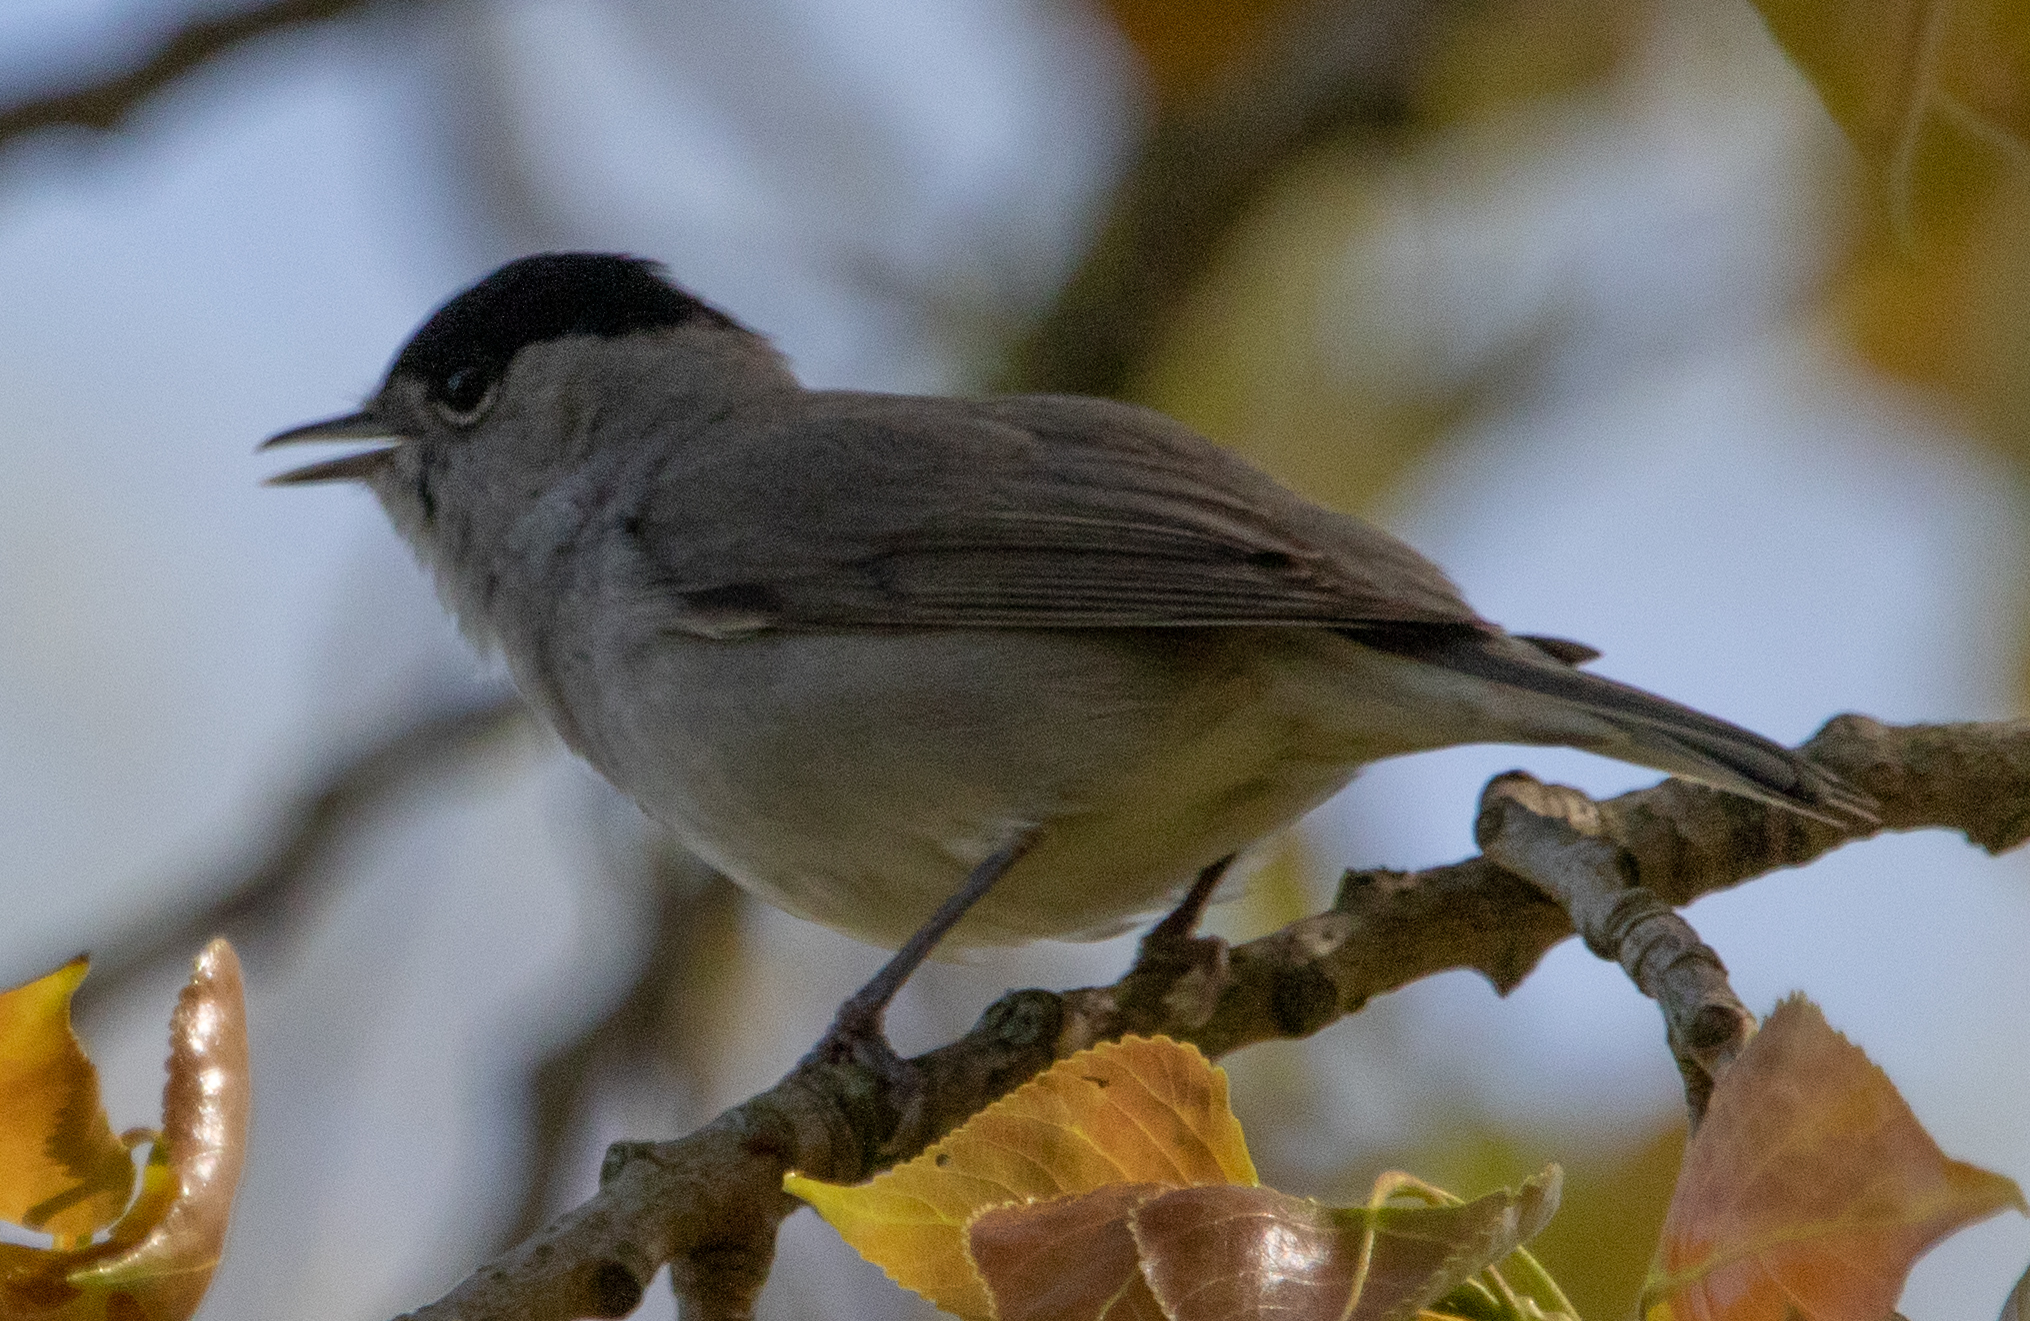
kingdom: Animalia
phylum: Chordata
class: Aves
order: Passeriformes
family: Sylviidae
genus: Sylvia
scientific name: Sylvia atricapilla
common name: Eurasian blackcap
